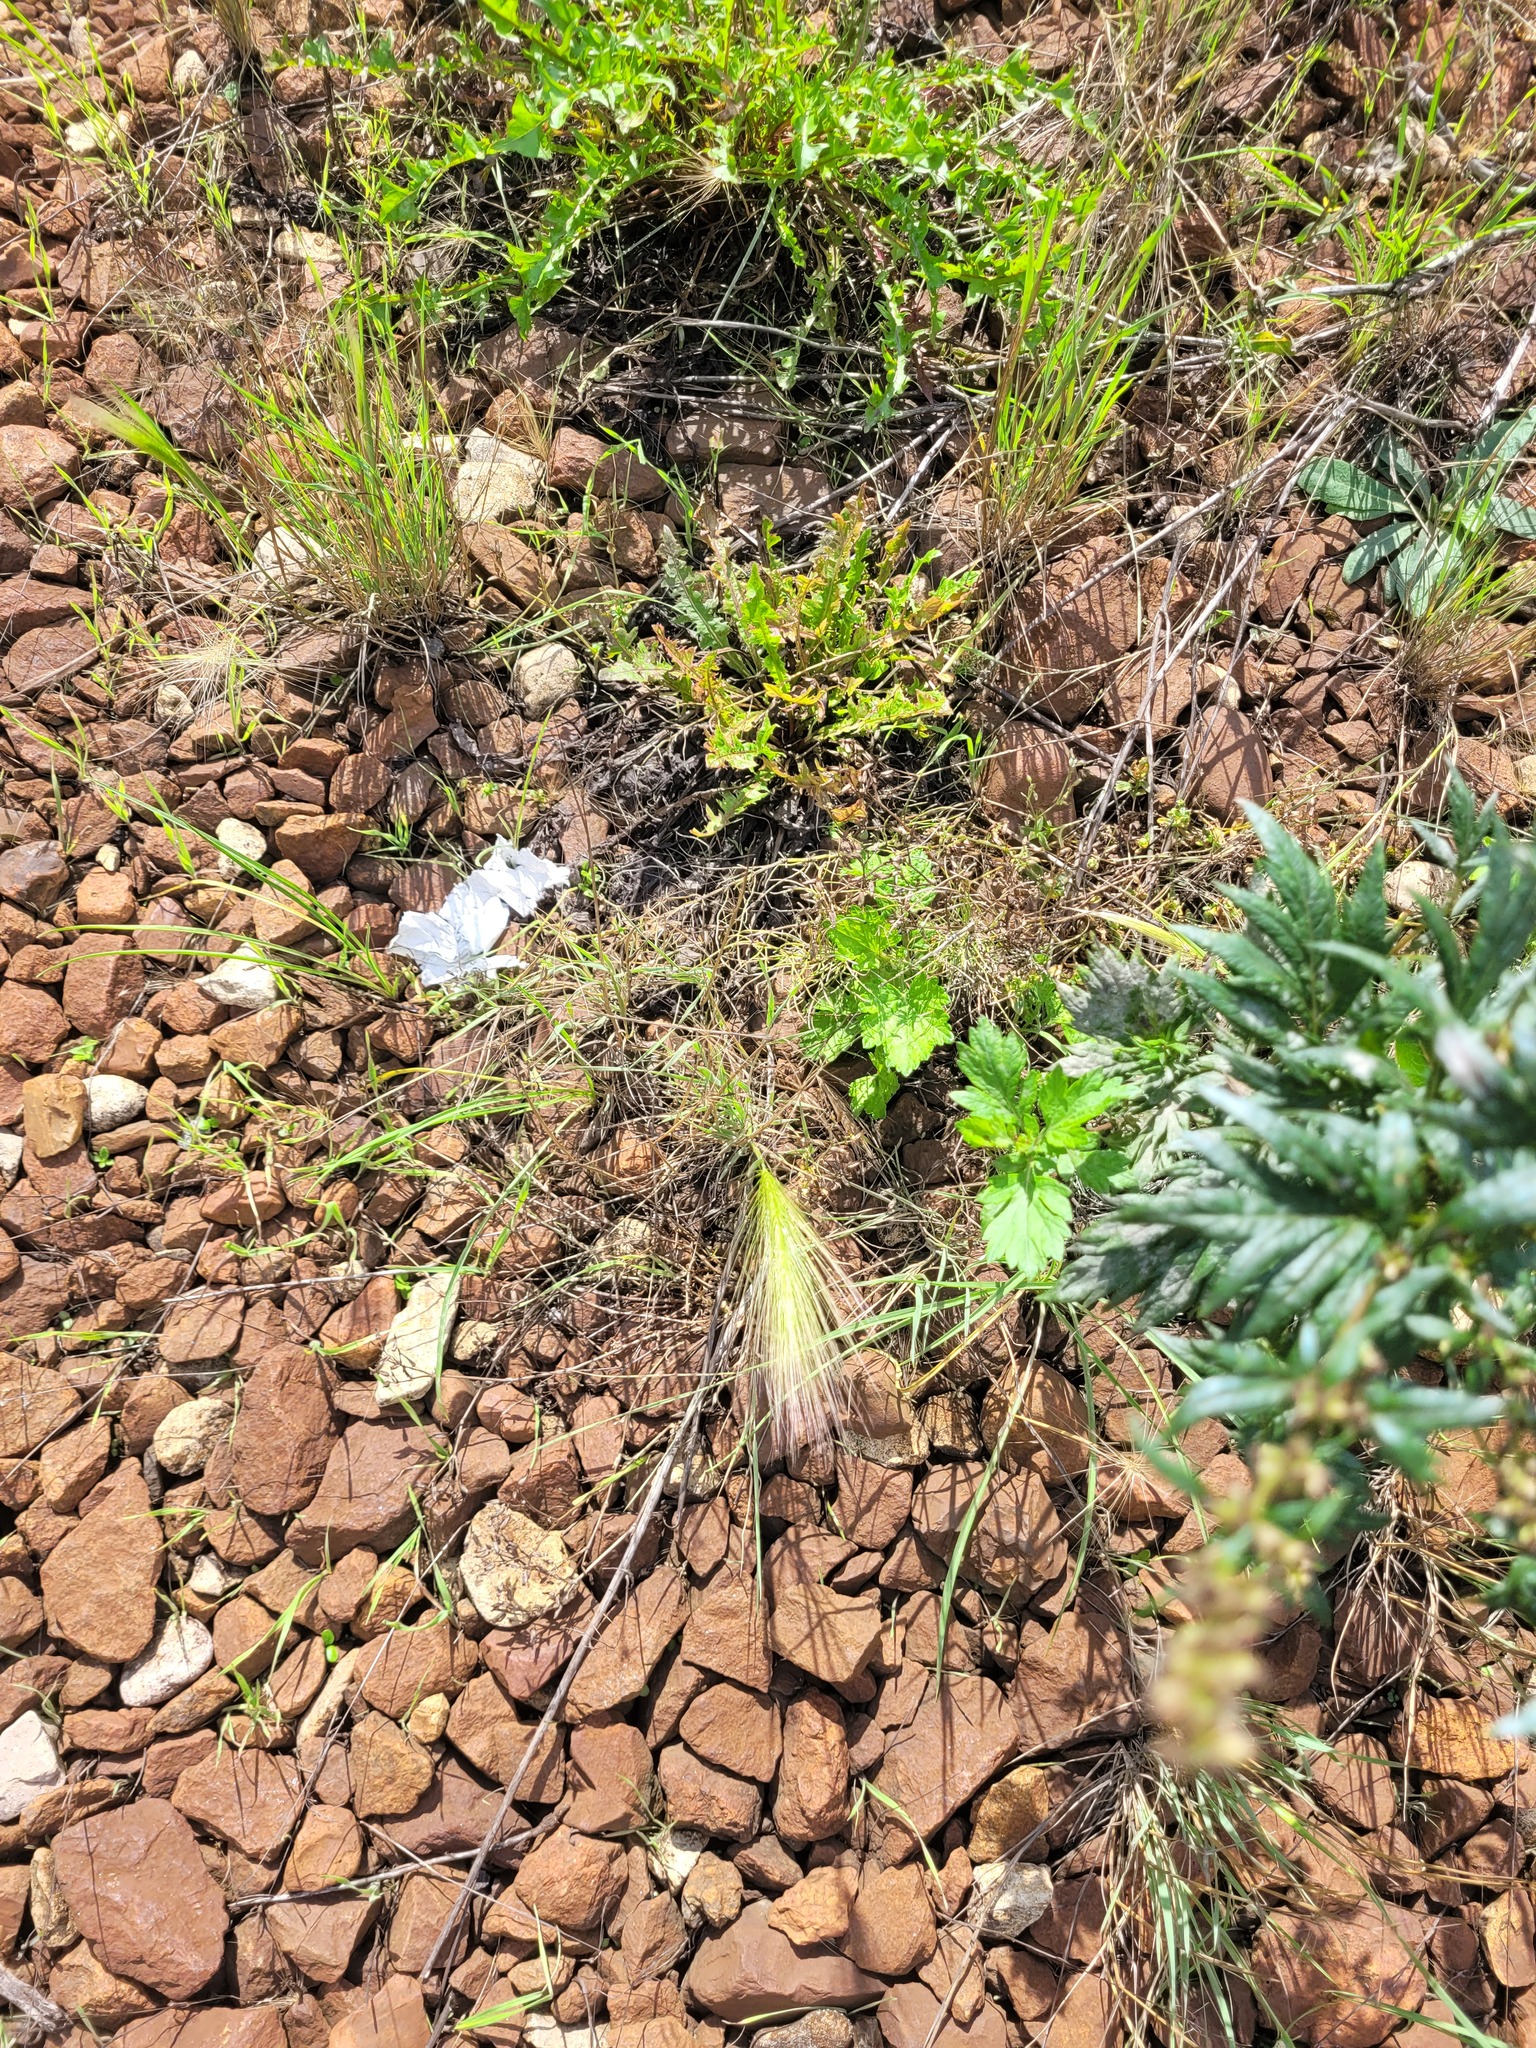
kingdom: Plantae
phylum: Tracheophyta
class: Liliopsida
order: Poales
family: Poaceae
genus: Hordeum
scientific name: Hordeum jubatum
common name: Foxtail barley
